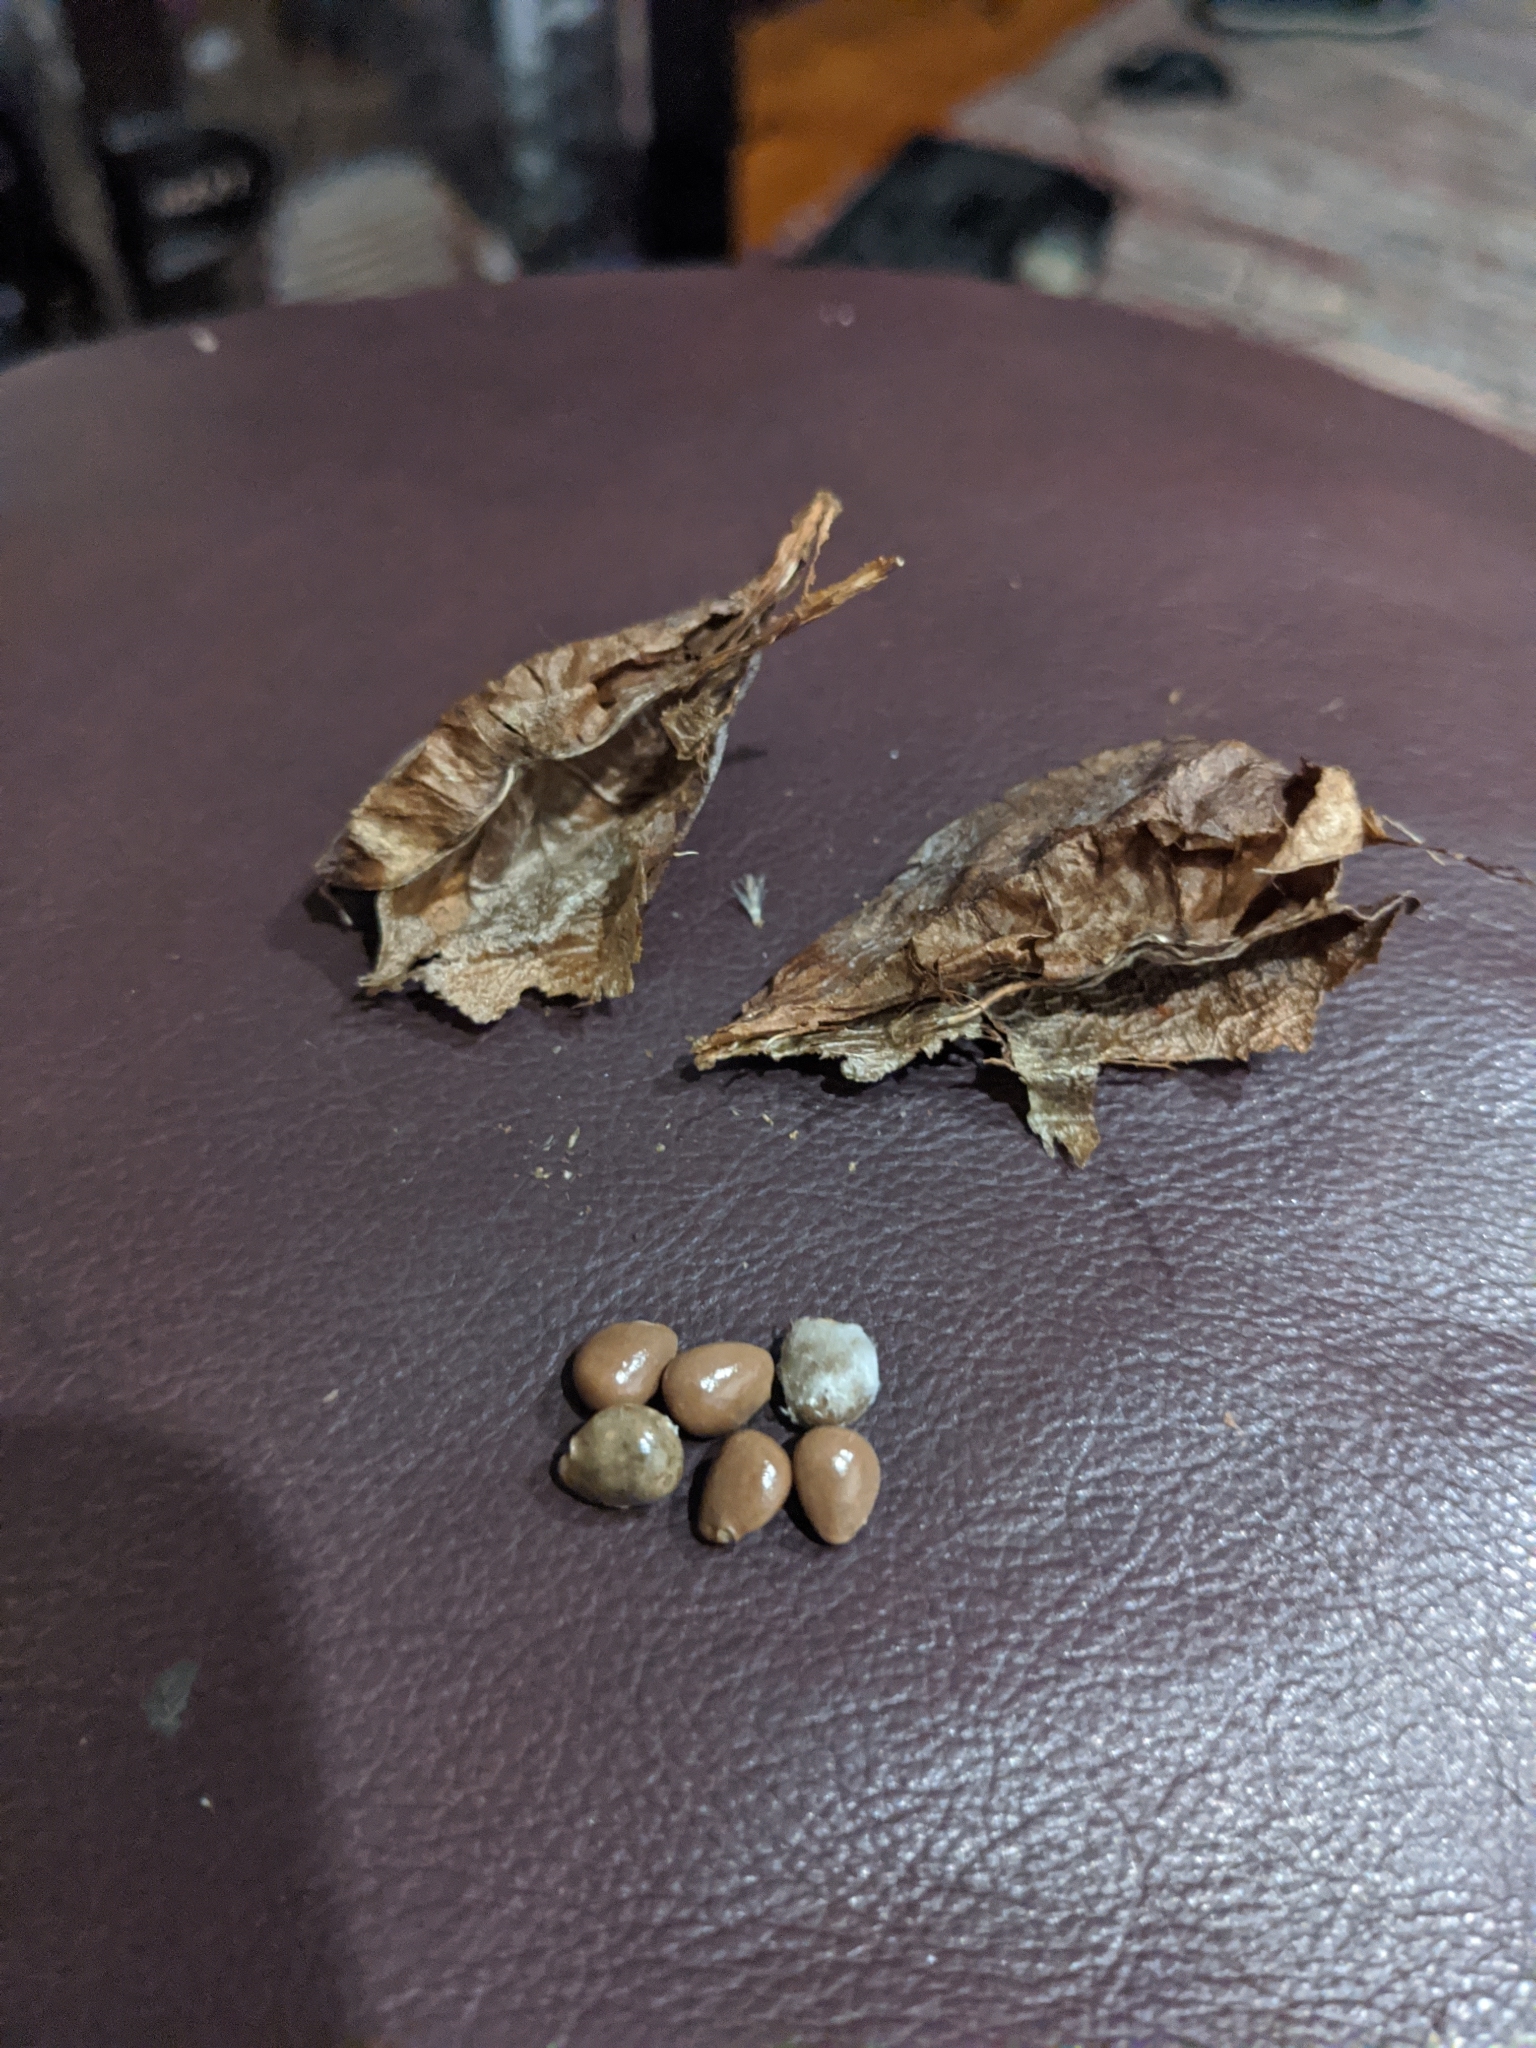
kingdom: Plantae
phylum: Tracheophyta
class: Magnoliopsida
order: Crossosomatales
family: Staphyleaceae
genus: Staphylea
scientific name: Staphylea trifolia
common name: American bladdernut
